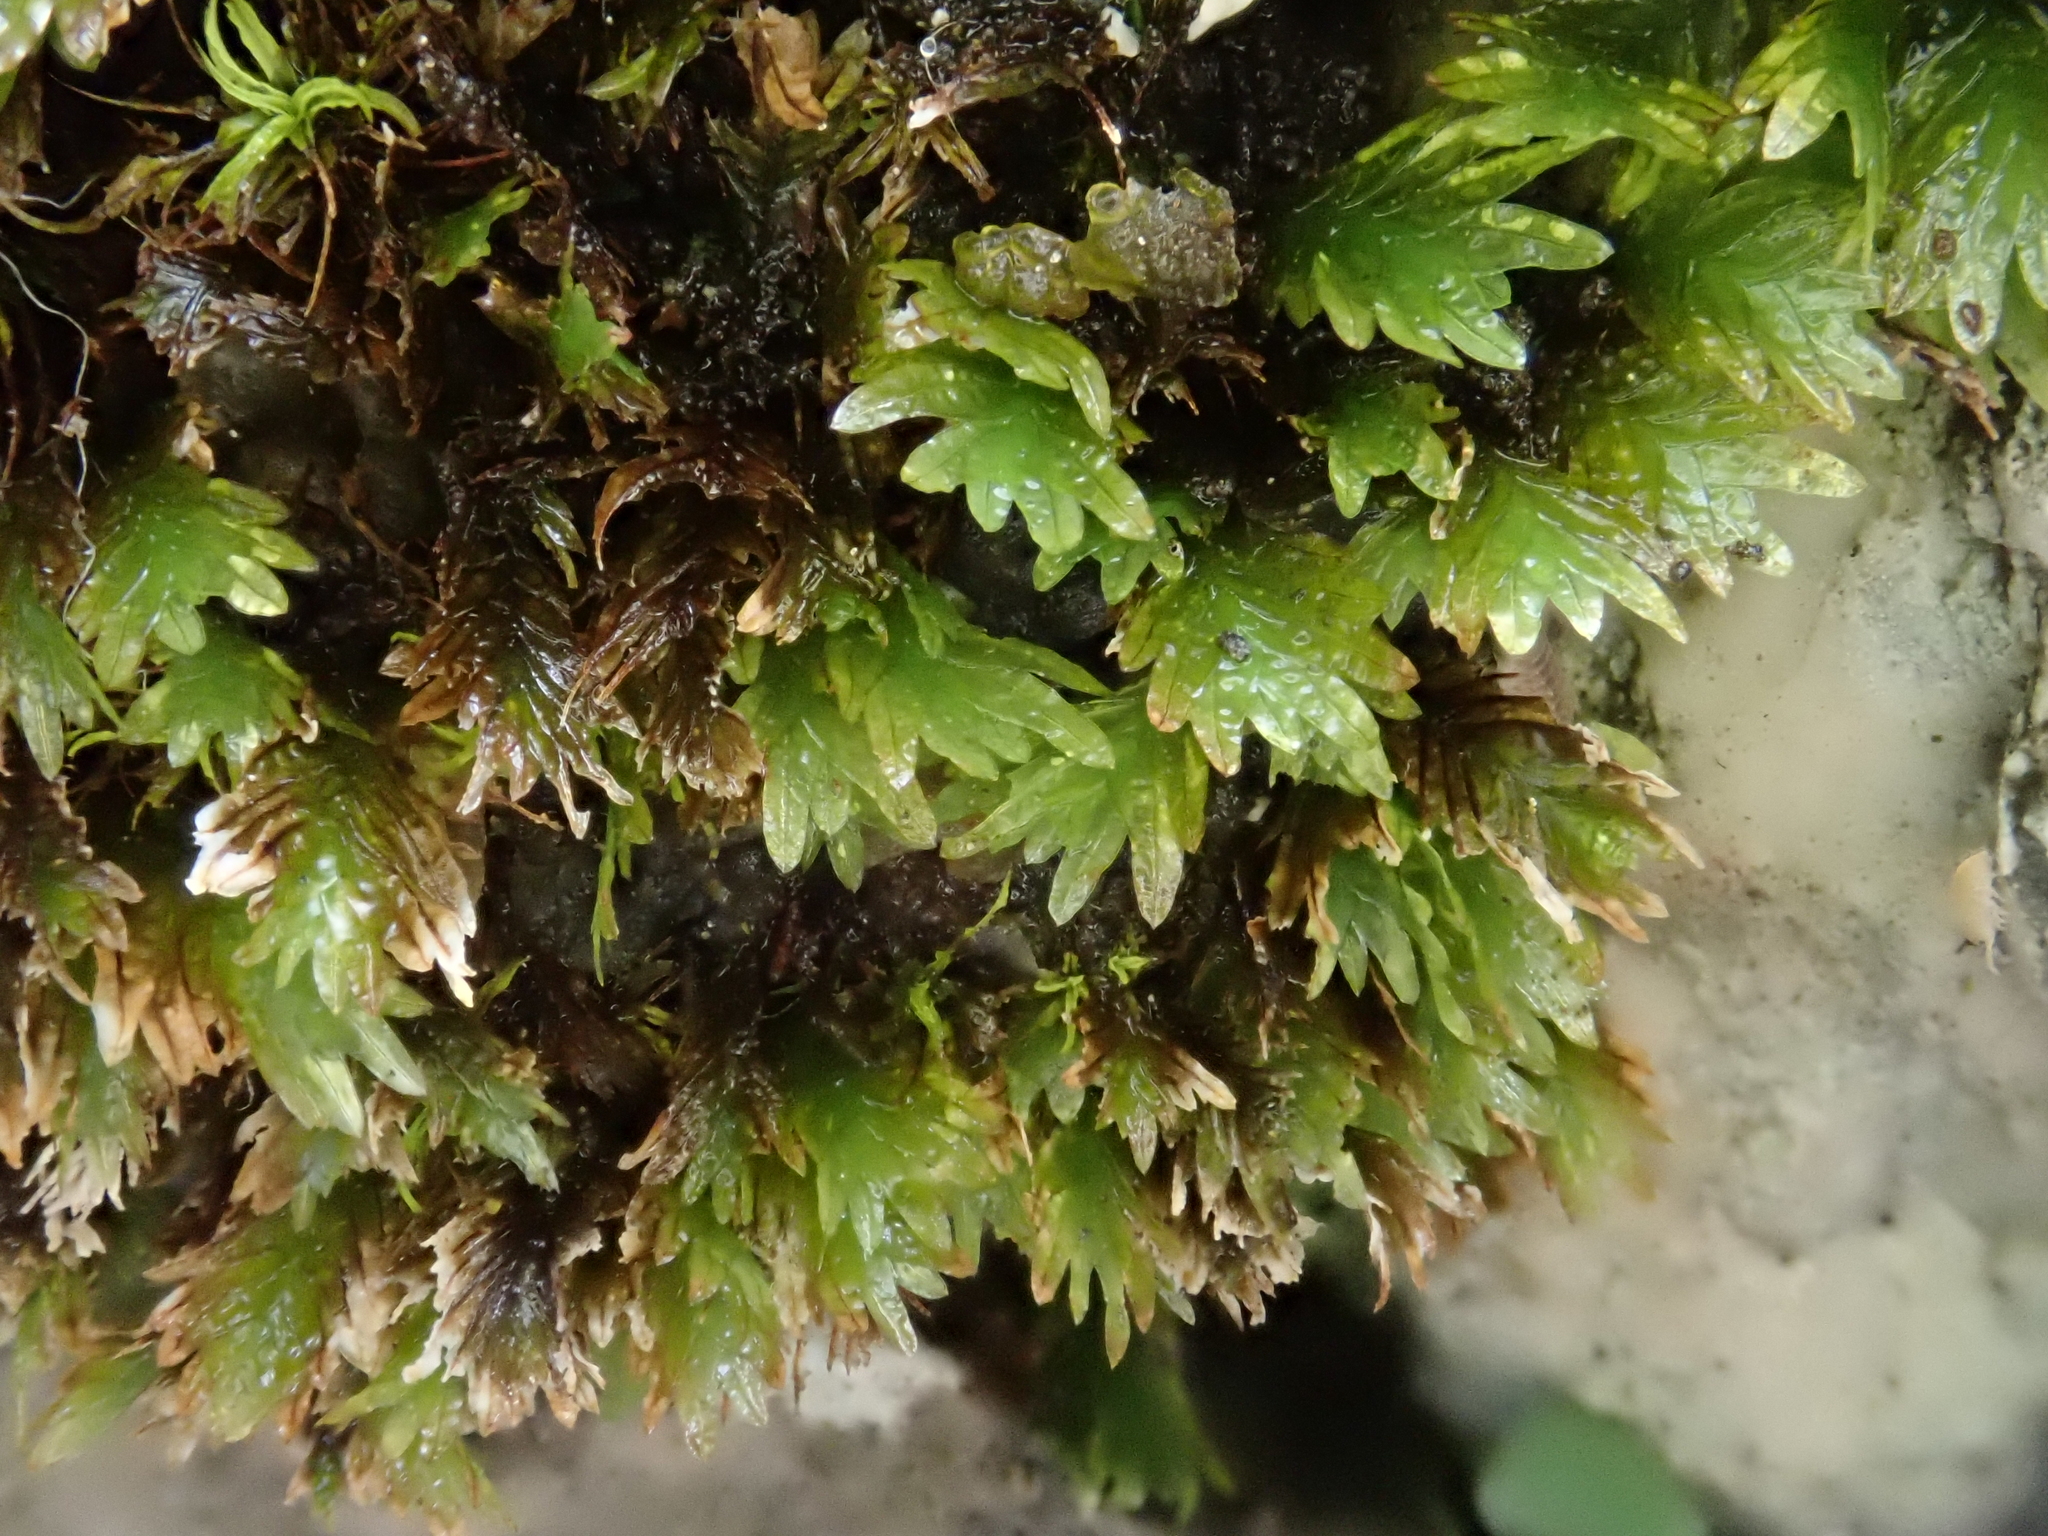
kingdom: Plantae
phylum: Bryophyta
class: Bryopsida
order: Dicranales
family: Fissidentaceae
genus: Fissidens
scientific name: Fissidens dubius
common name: Rock pocket moss
